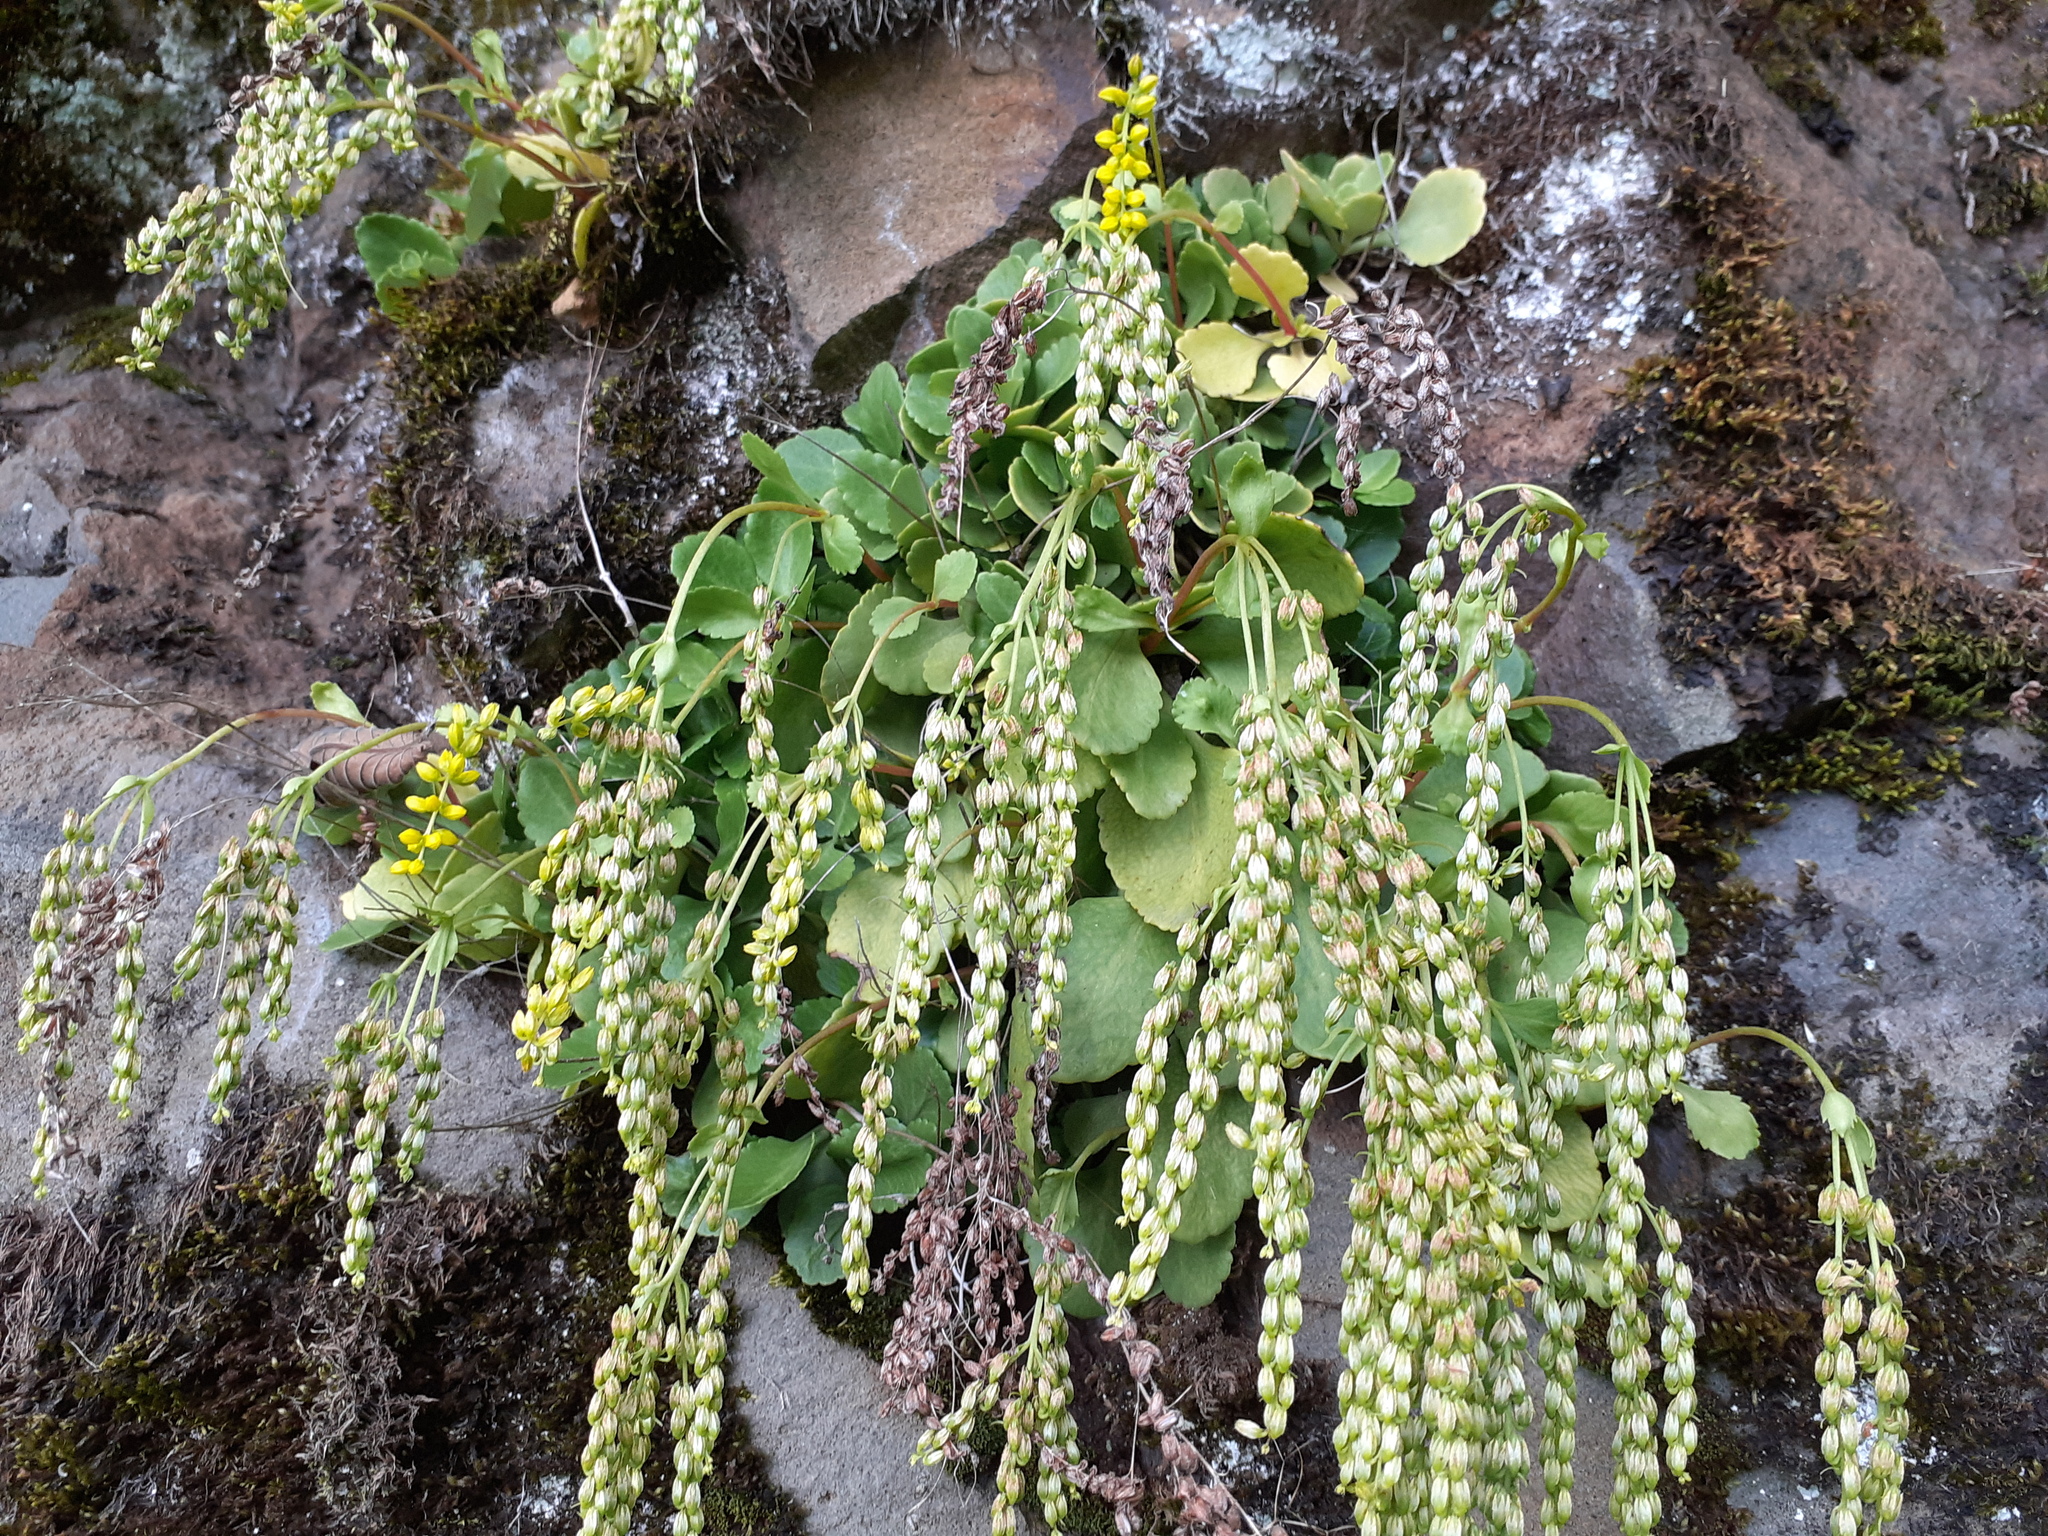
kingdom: Plantae
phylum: Tracheophyta
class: Magnoliopsida
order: Saxifragales
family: Crassulaceae
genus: Umbilicus
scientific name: Umbilicus oppositifolius
